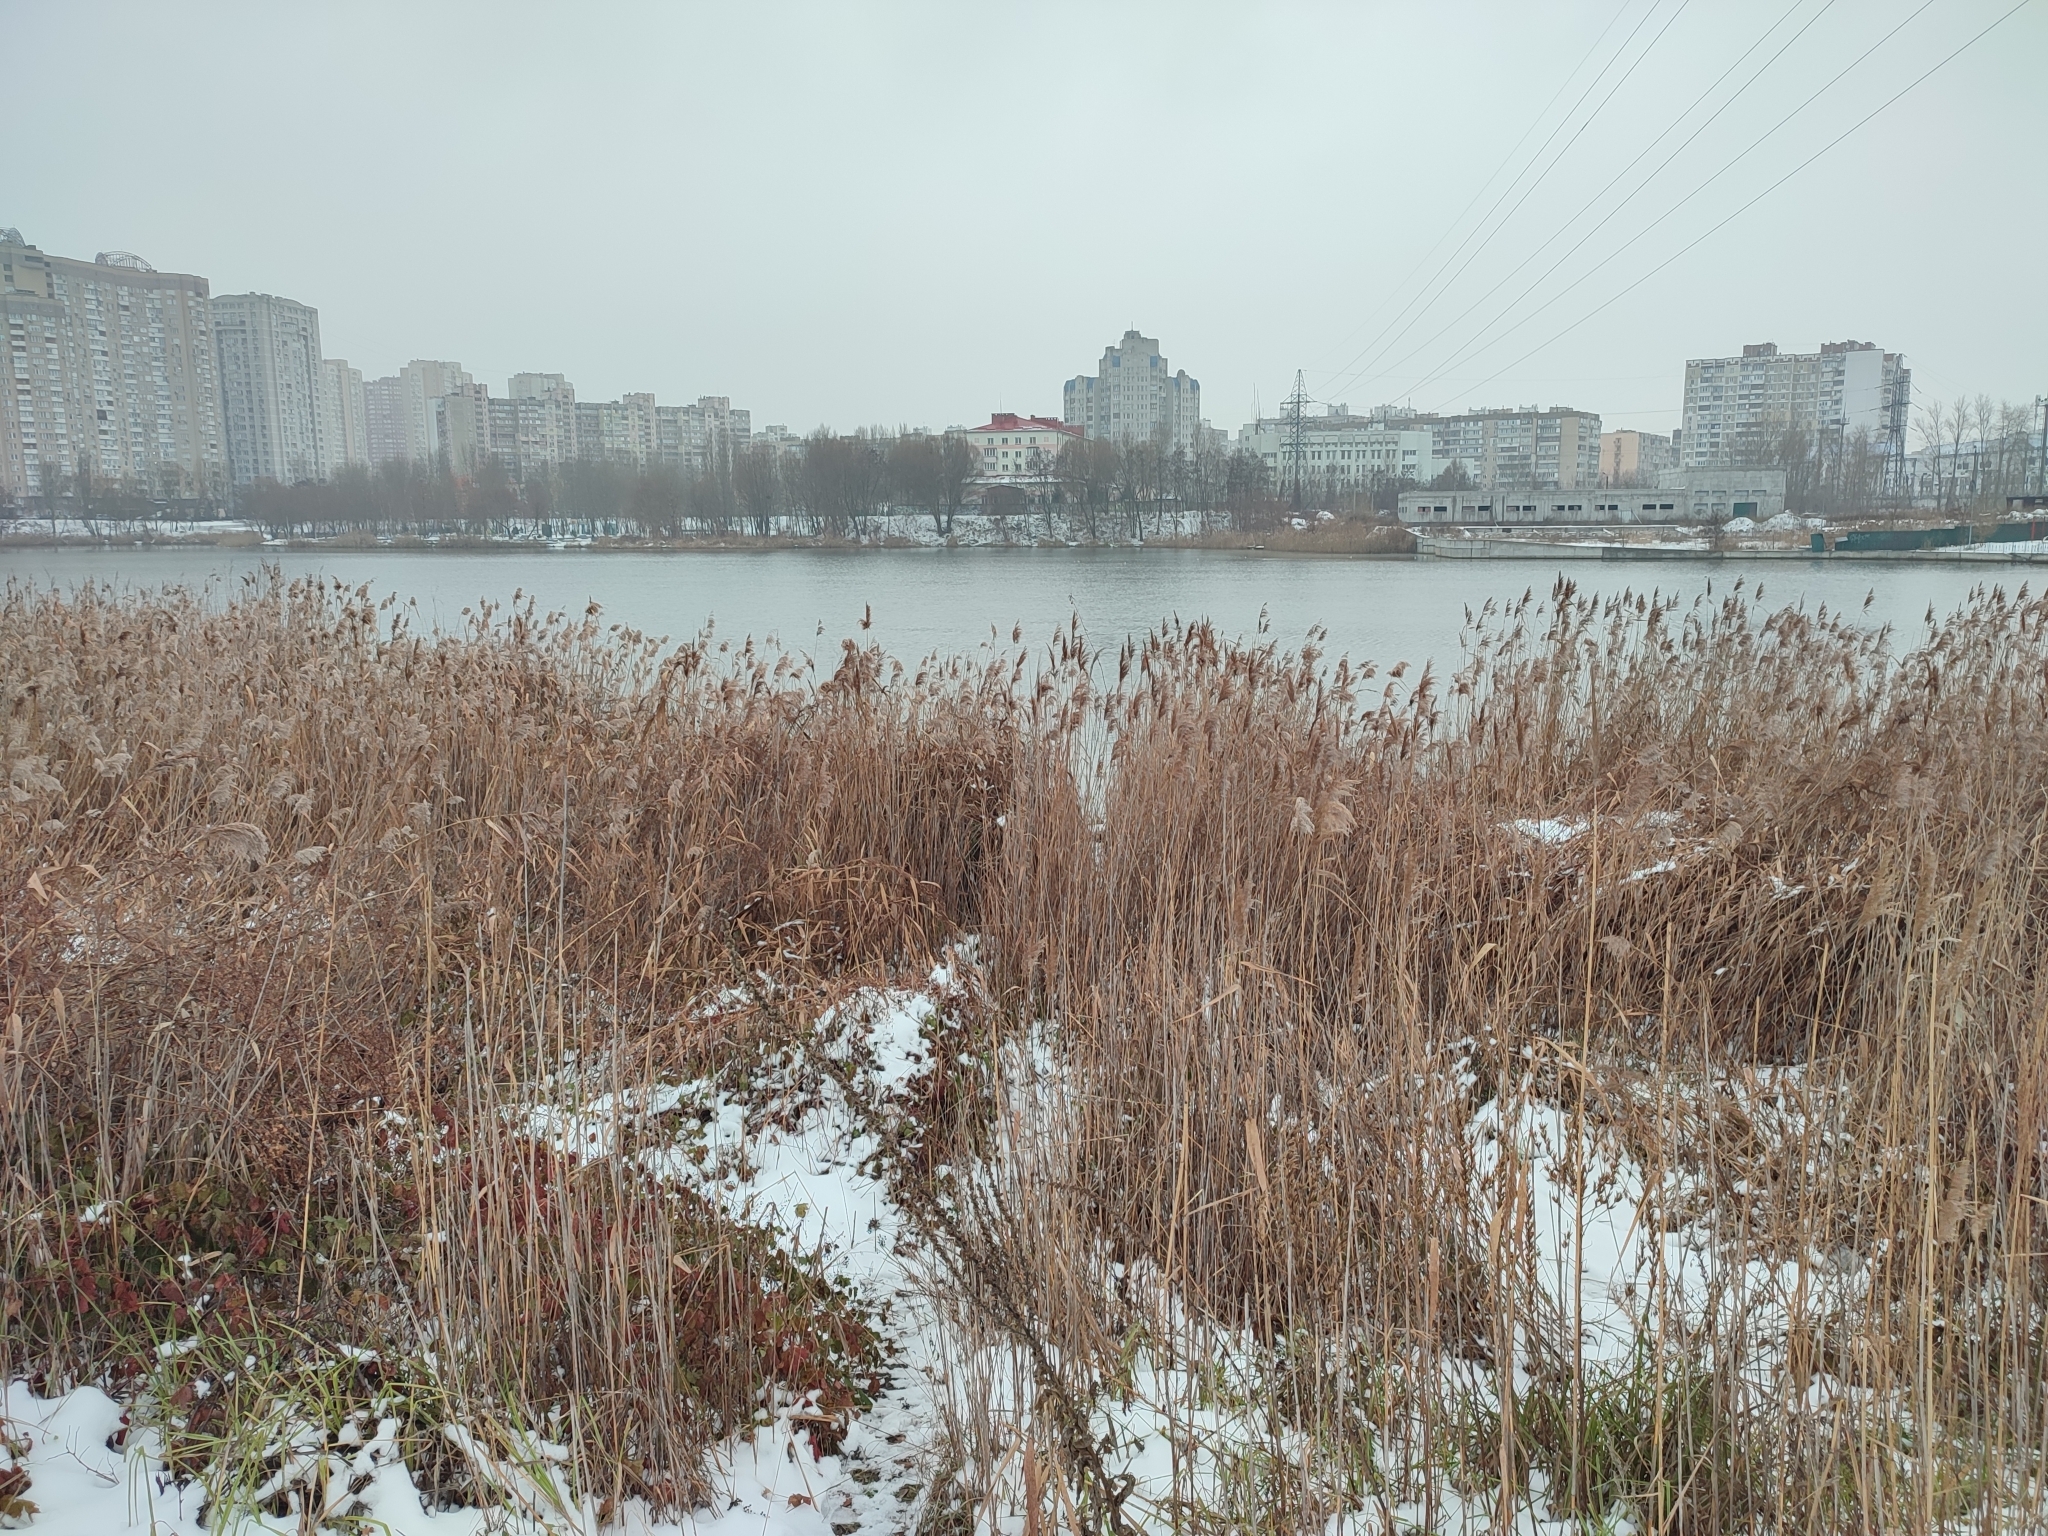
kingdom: Plantae
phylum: Tracheophyta
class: Liliopsida
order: Poales
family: Poaceae
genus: Phragmites
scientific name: Phragmites australis
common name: Common reed
